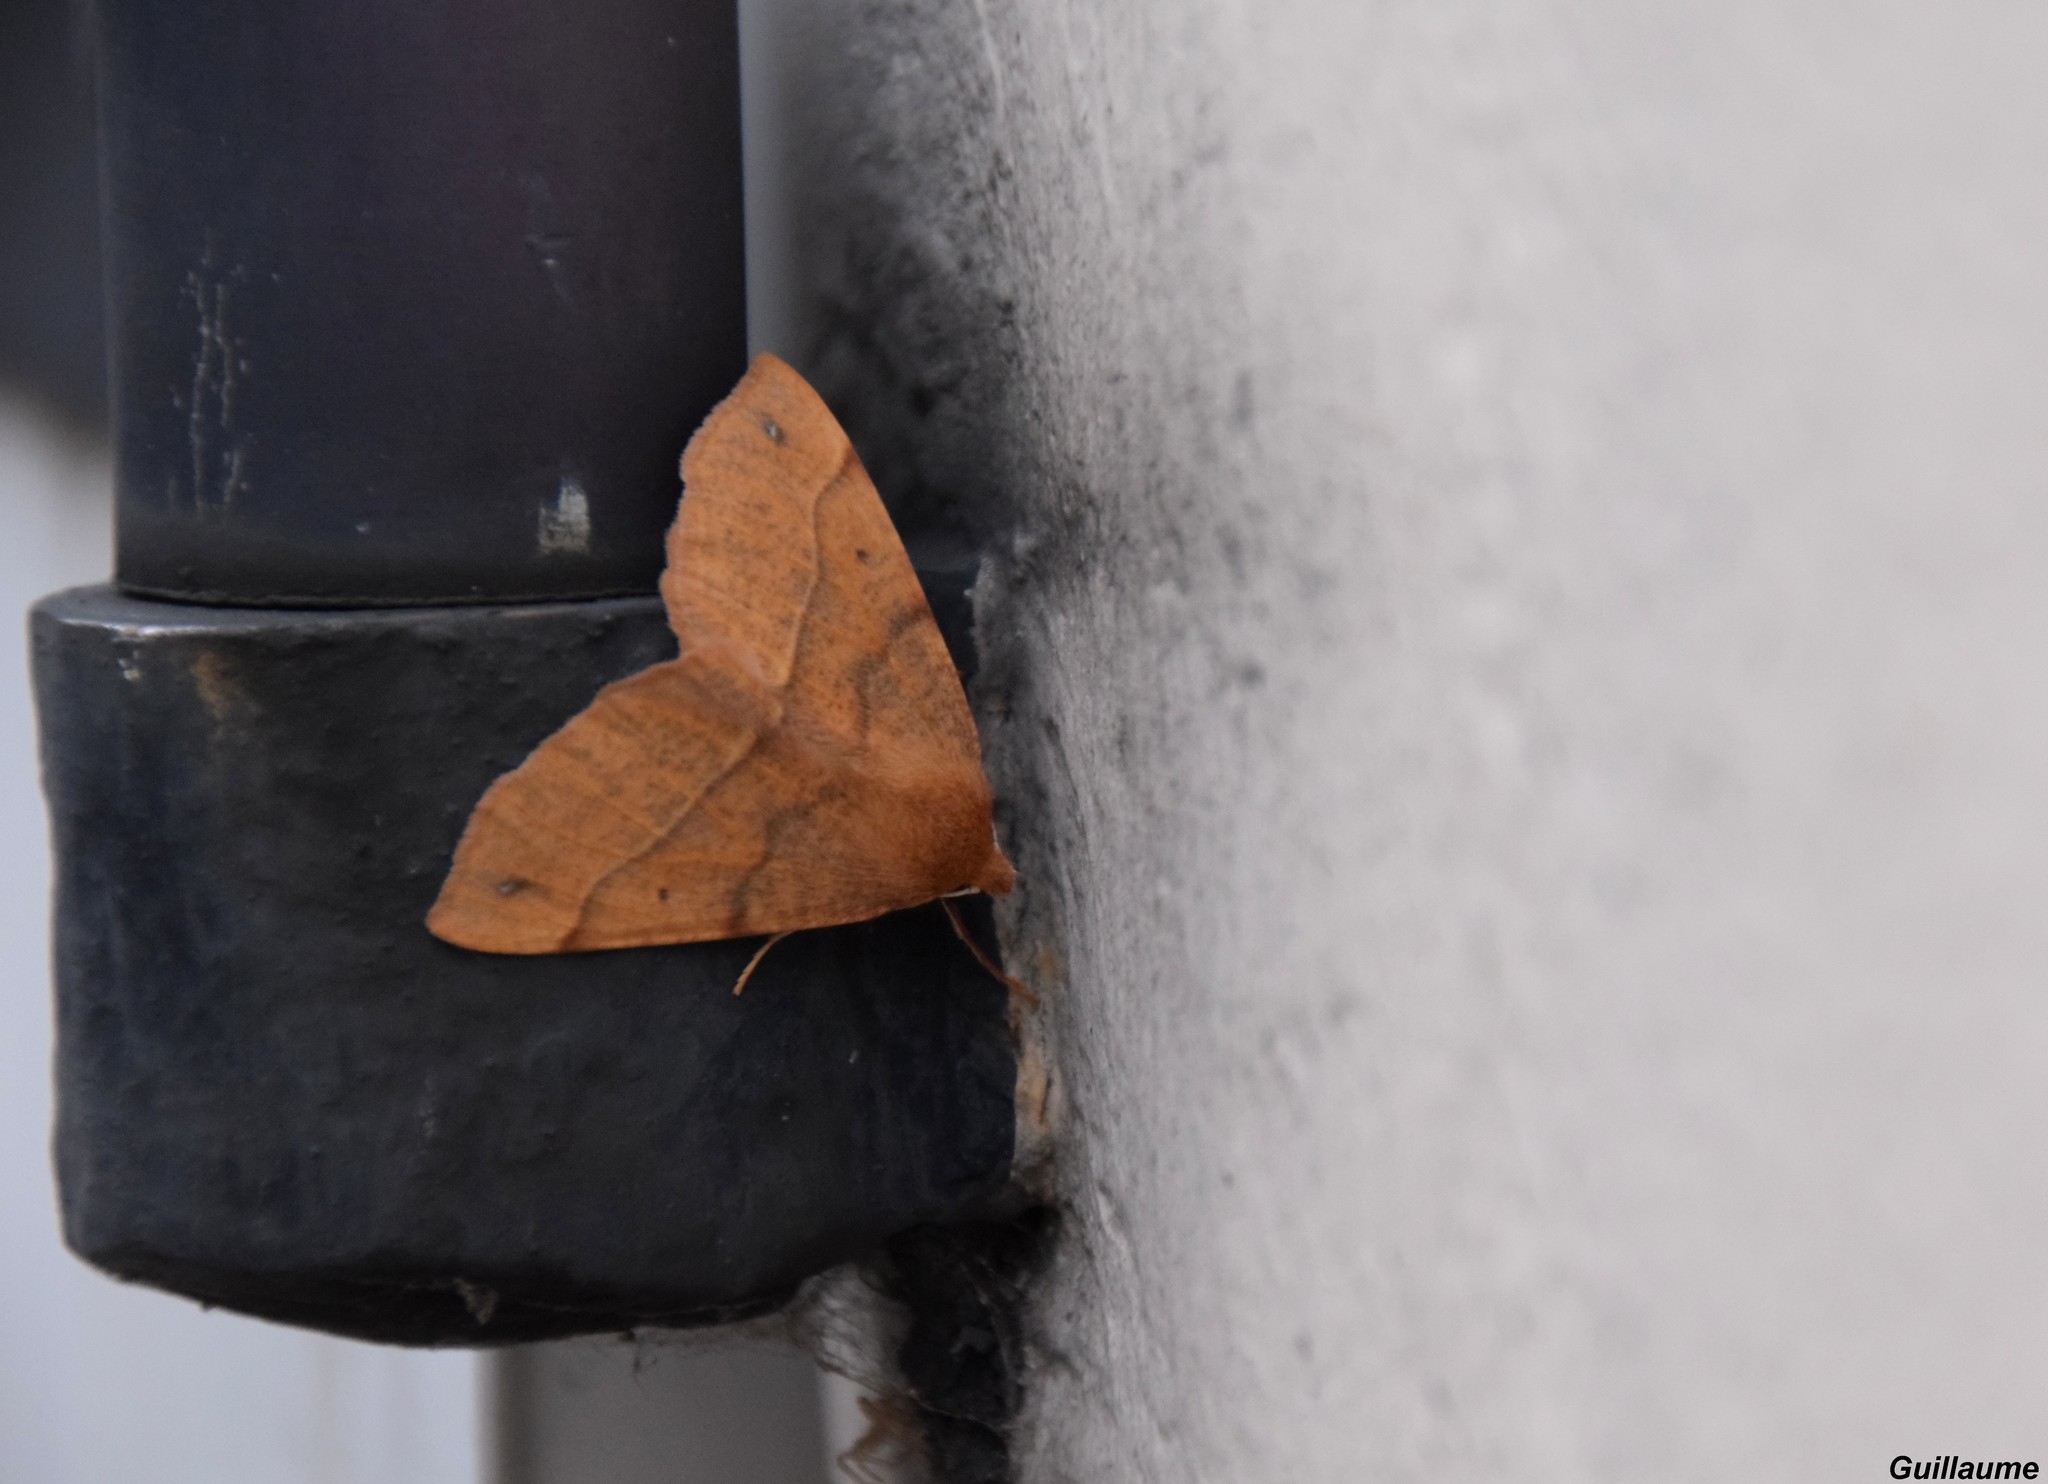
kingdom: Animalia
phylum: Arthropoda
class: Insecta
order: Lepidoptera
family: Geometridae
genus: Colotois
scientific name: Colotois pennaria
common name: Feathered thorn
